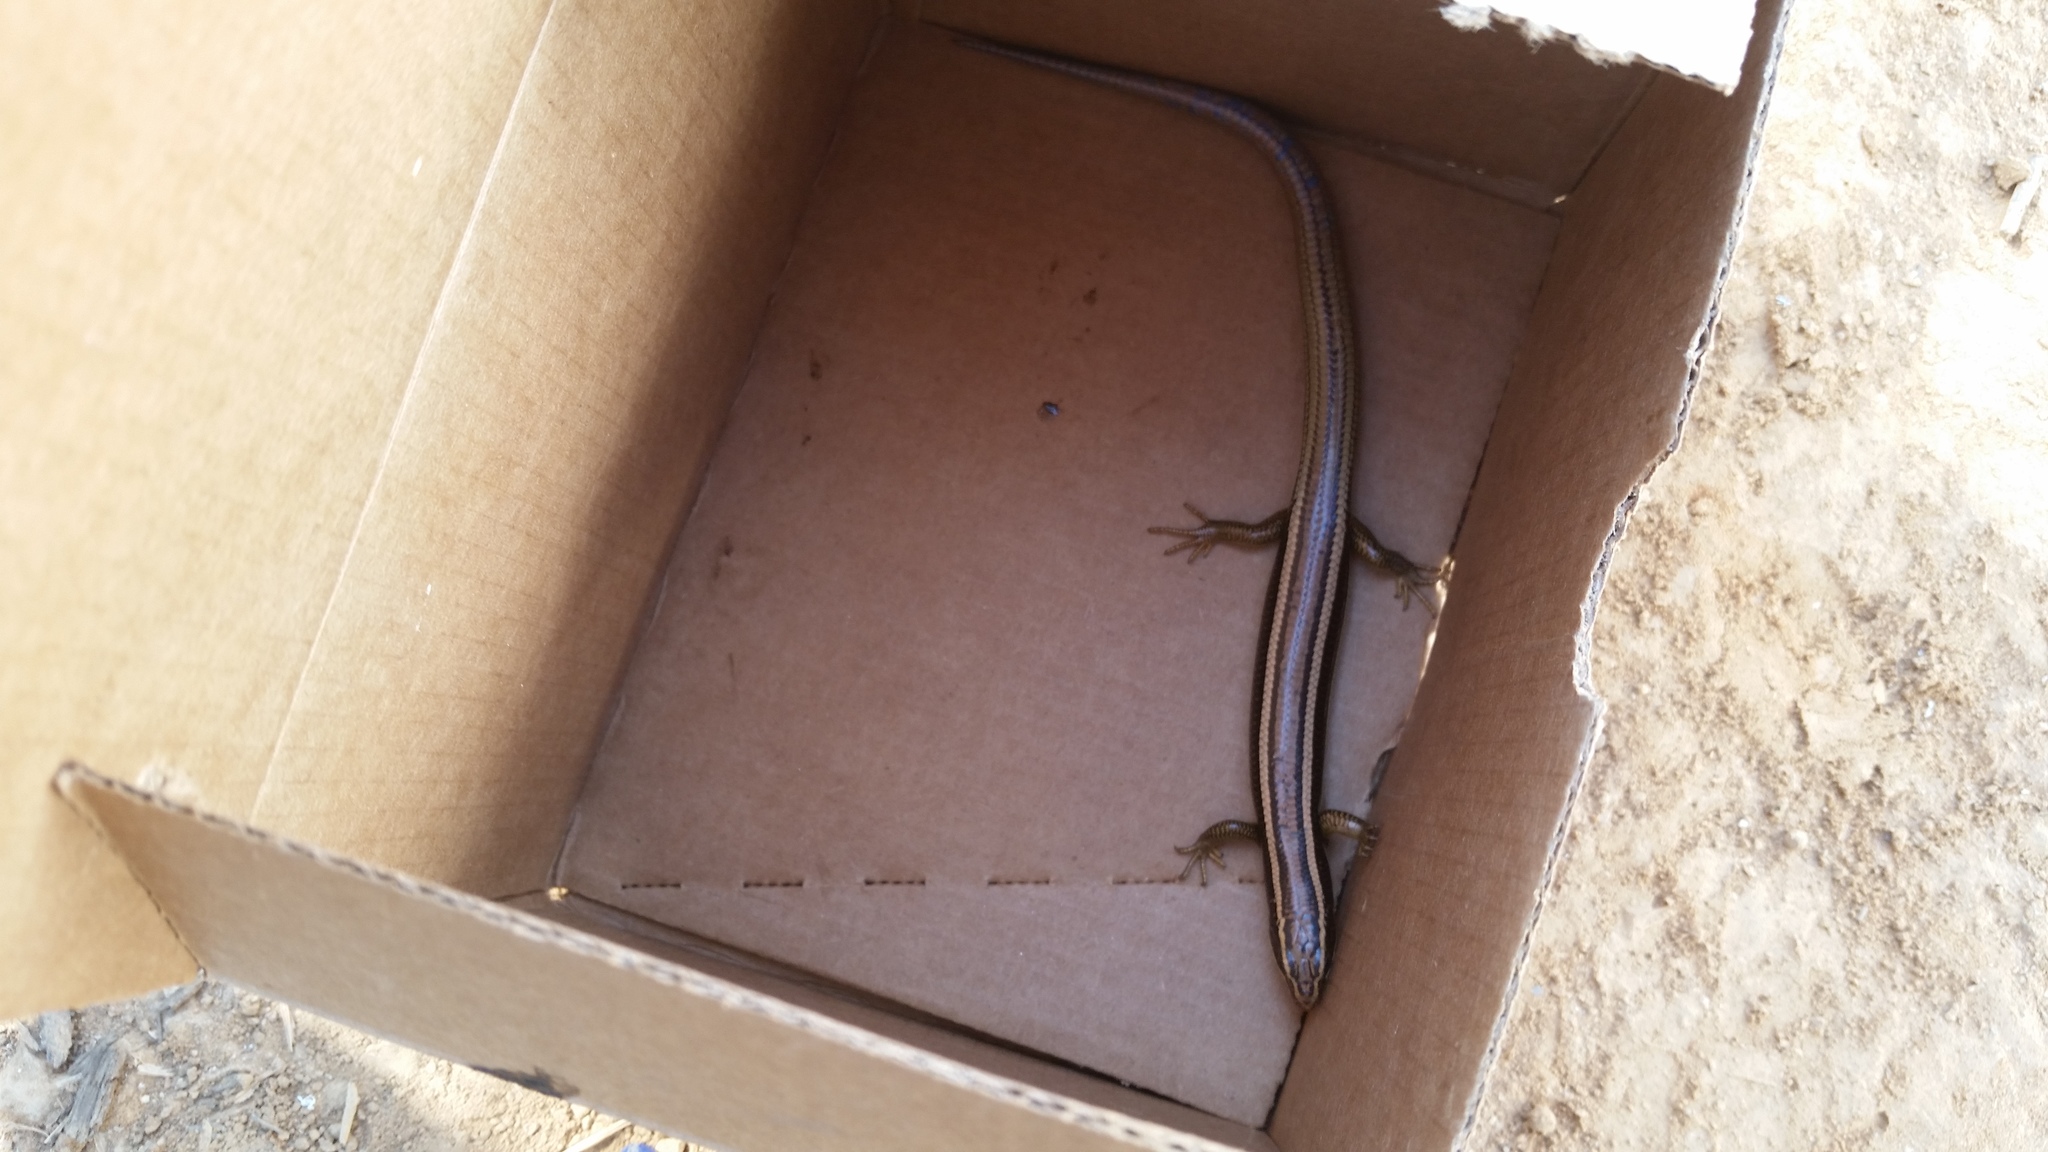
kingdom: Animalia
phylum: Chordata
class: Squamata
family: Scincidae
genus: Plestiodon
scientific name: Plestiodon gilberti
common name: Gilbert's skink
